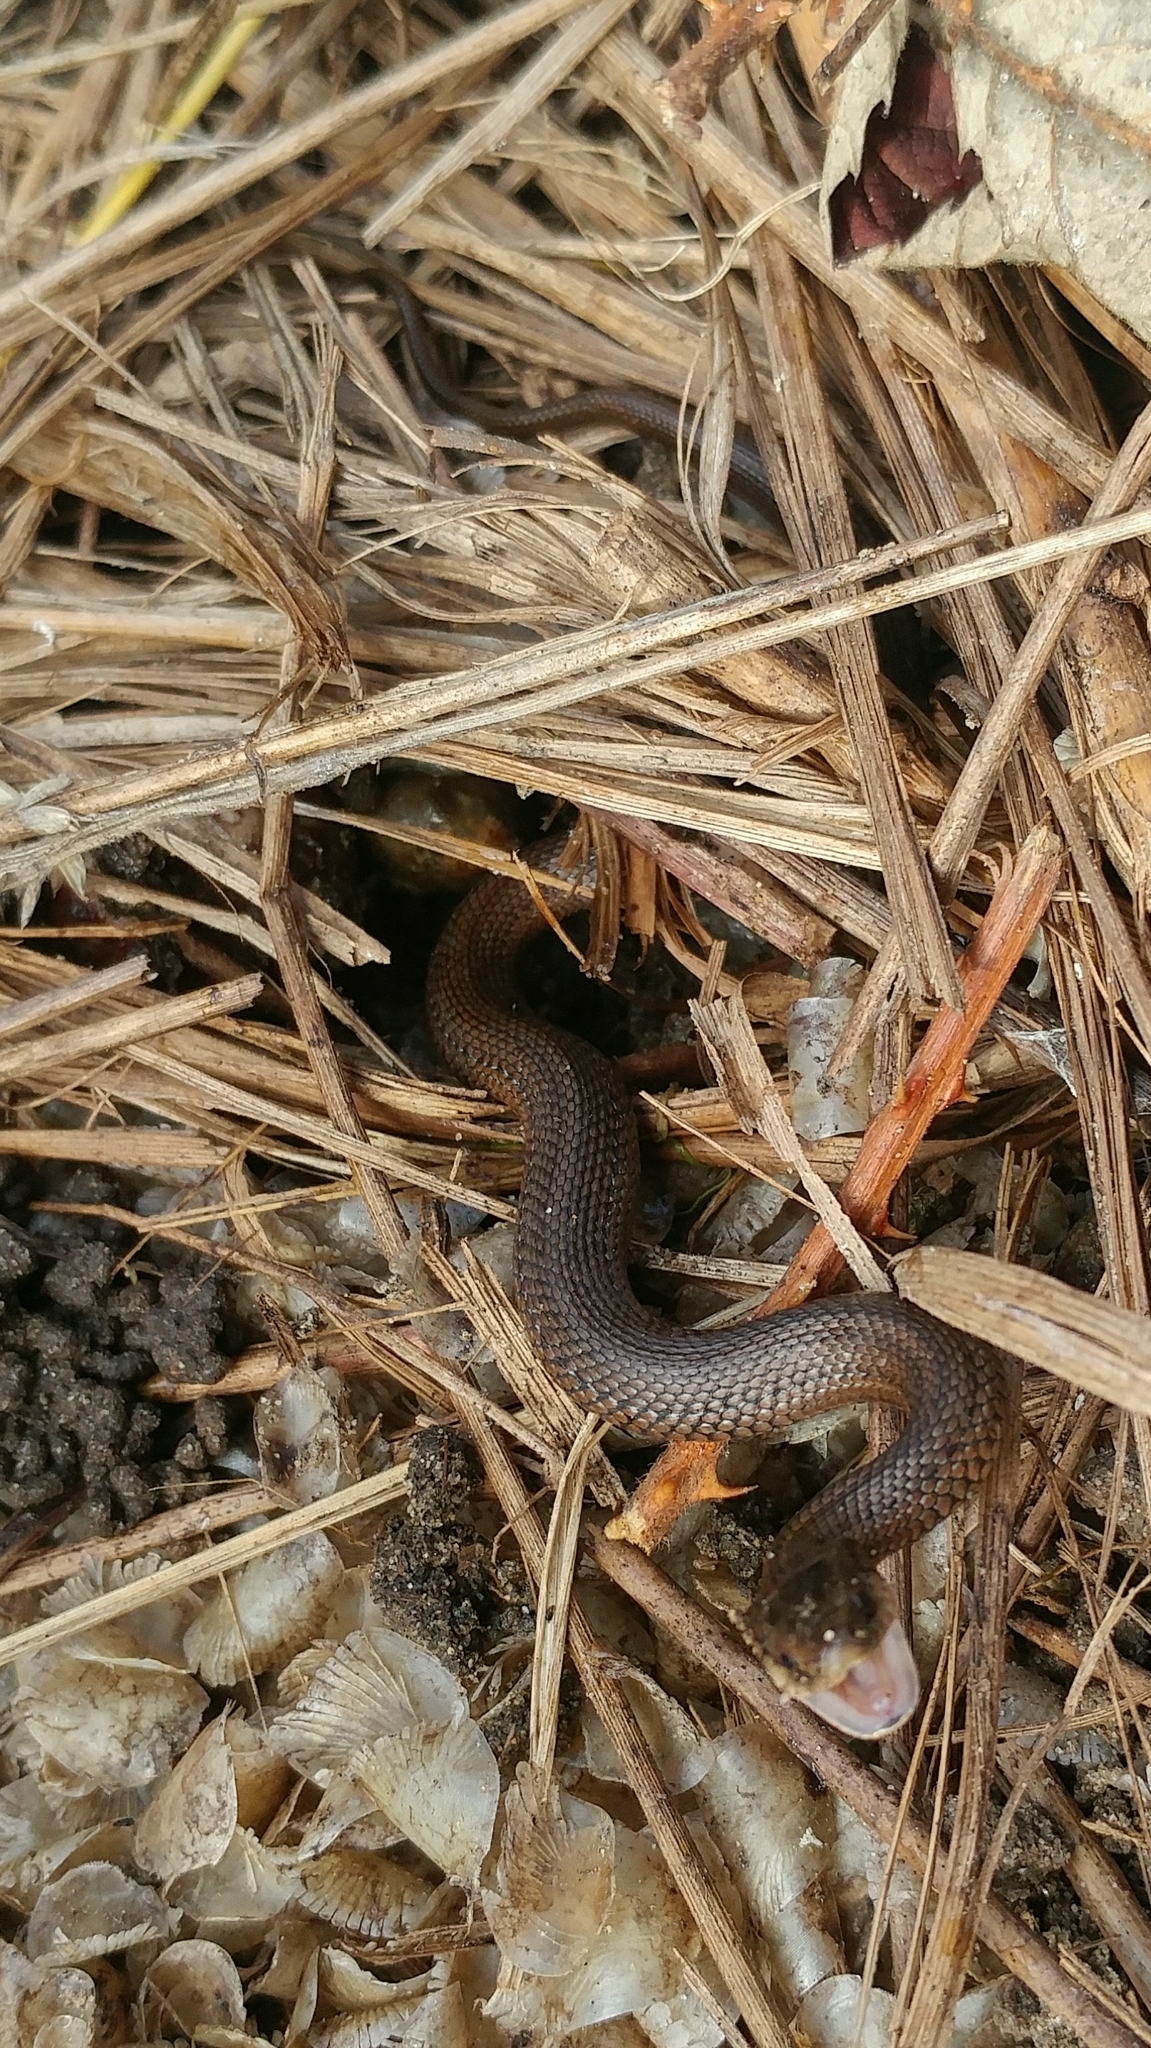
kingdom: Animalia
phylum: Chordata
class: Squamata
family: Colubridae
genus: Thamnophis
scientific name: Thamnophis ordinoides
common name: Northwestern garter snake
